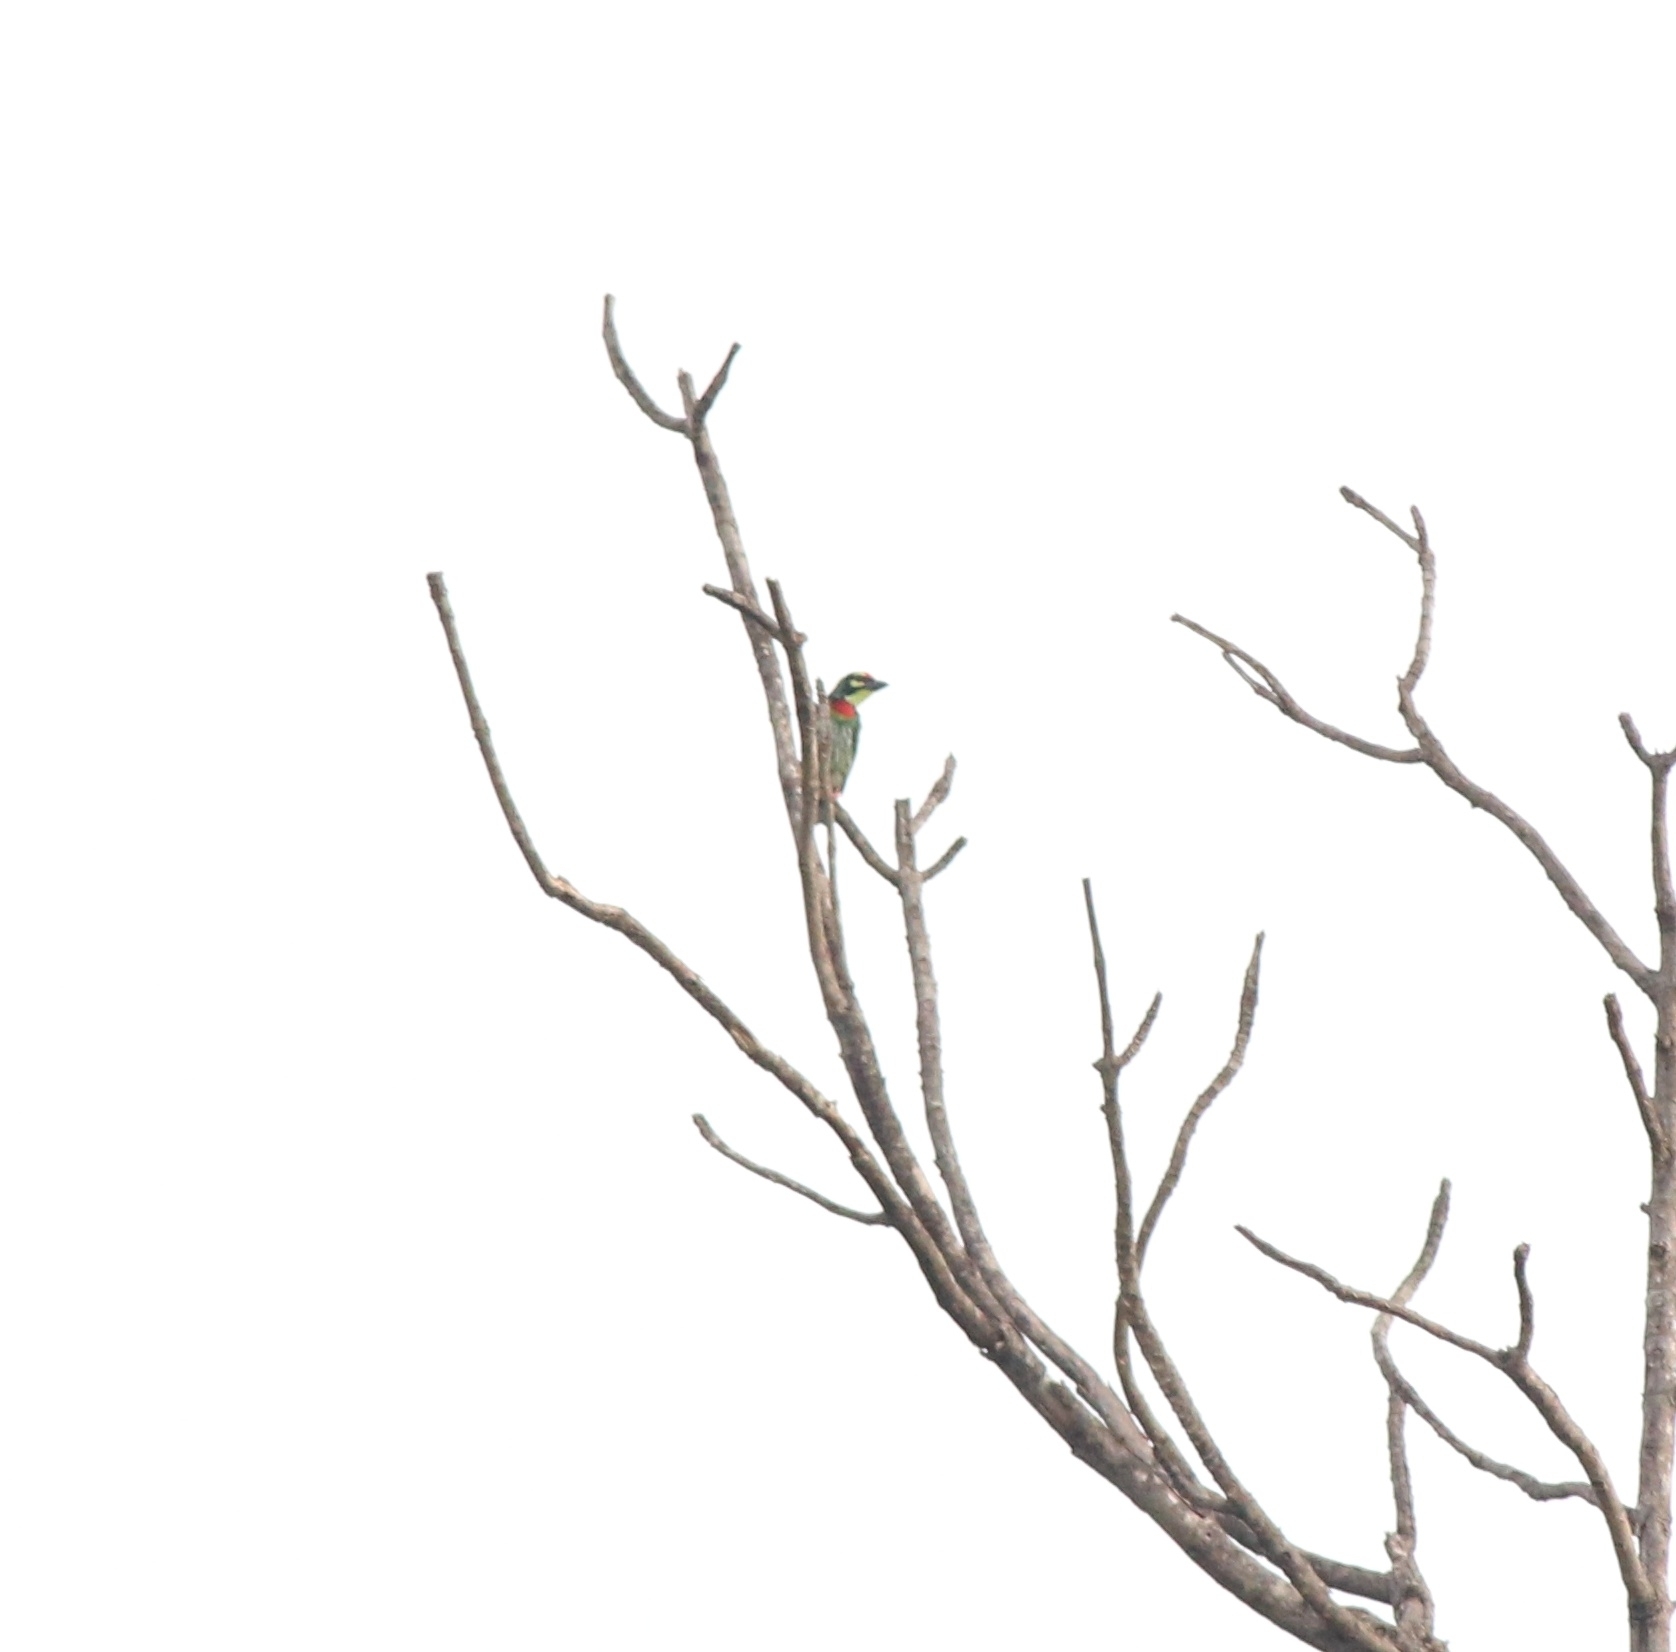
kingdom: Animalia
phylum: Chordata
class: Aves
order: Piciformes
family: Megalaimidae
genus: Psilopogon
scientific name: Psilopogon haemacephalus
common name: Coppersmith barbet
